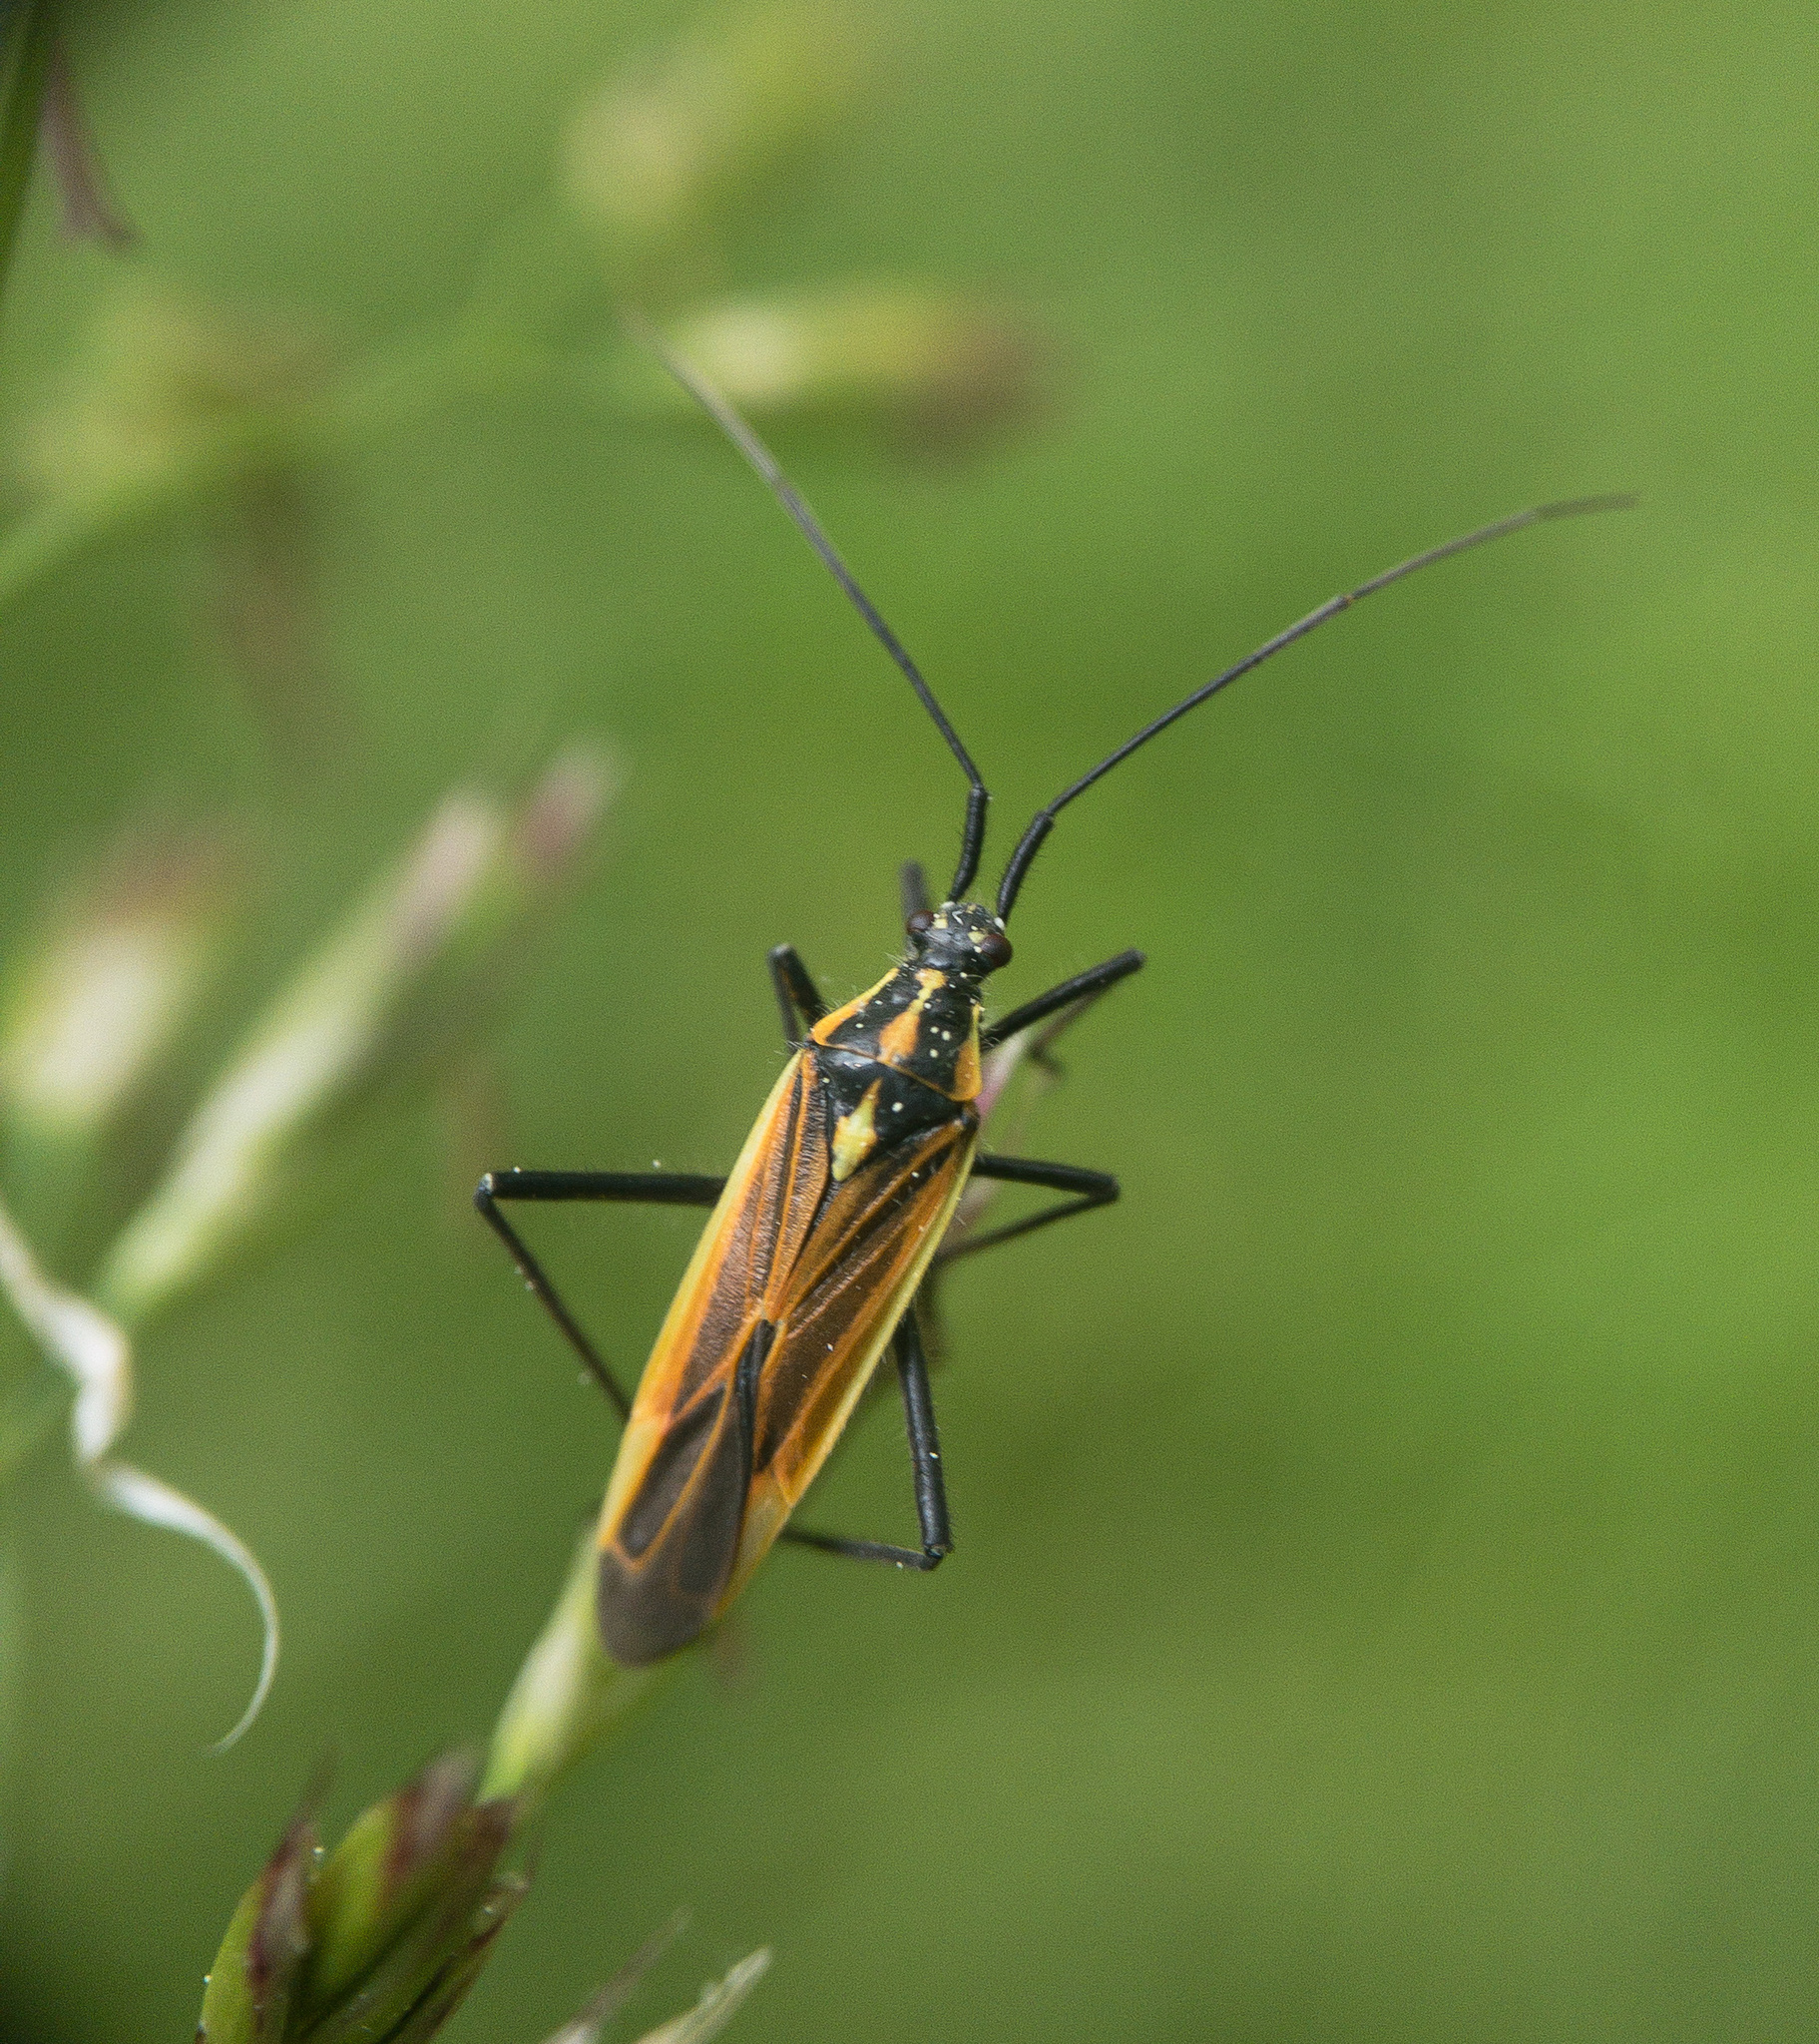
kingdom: Animalia
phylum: Arthropoda
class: Insecta
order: Hemiptera
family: Miridae
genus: Leptopterna
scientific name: Leptopterna dolabrata
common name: Meadow plant bug
